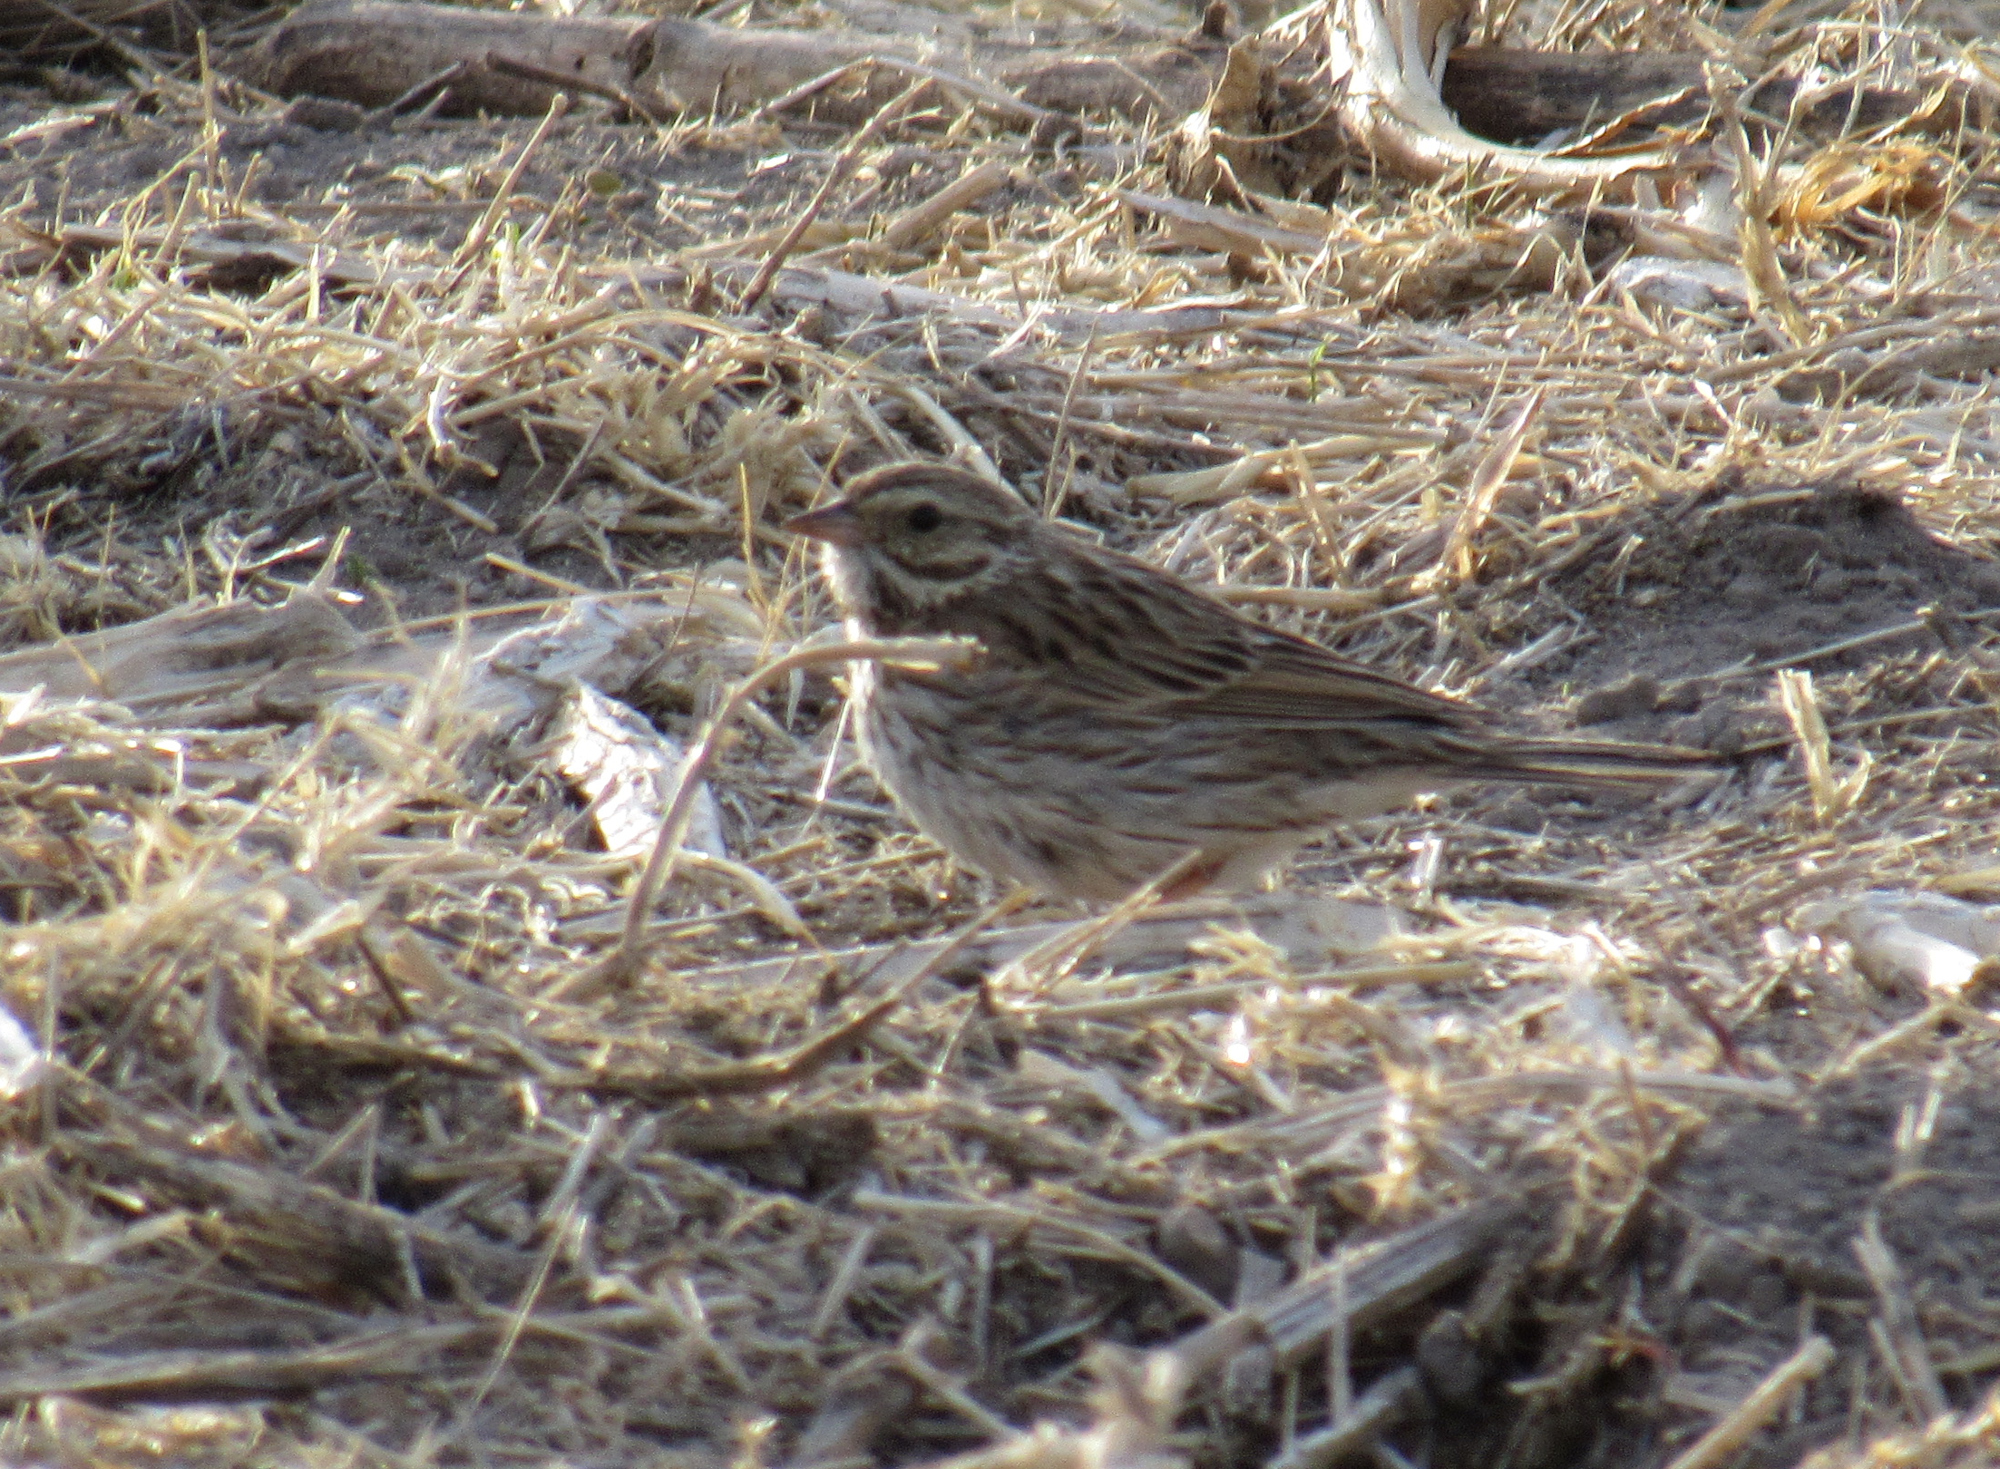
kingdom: Animalia
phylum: Chordata
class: Aves
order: Passeriformes
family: Passerellidae
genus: Pooecetes
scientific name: Pooecetes gramineus
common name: Vesper sparrow
